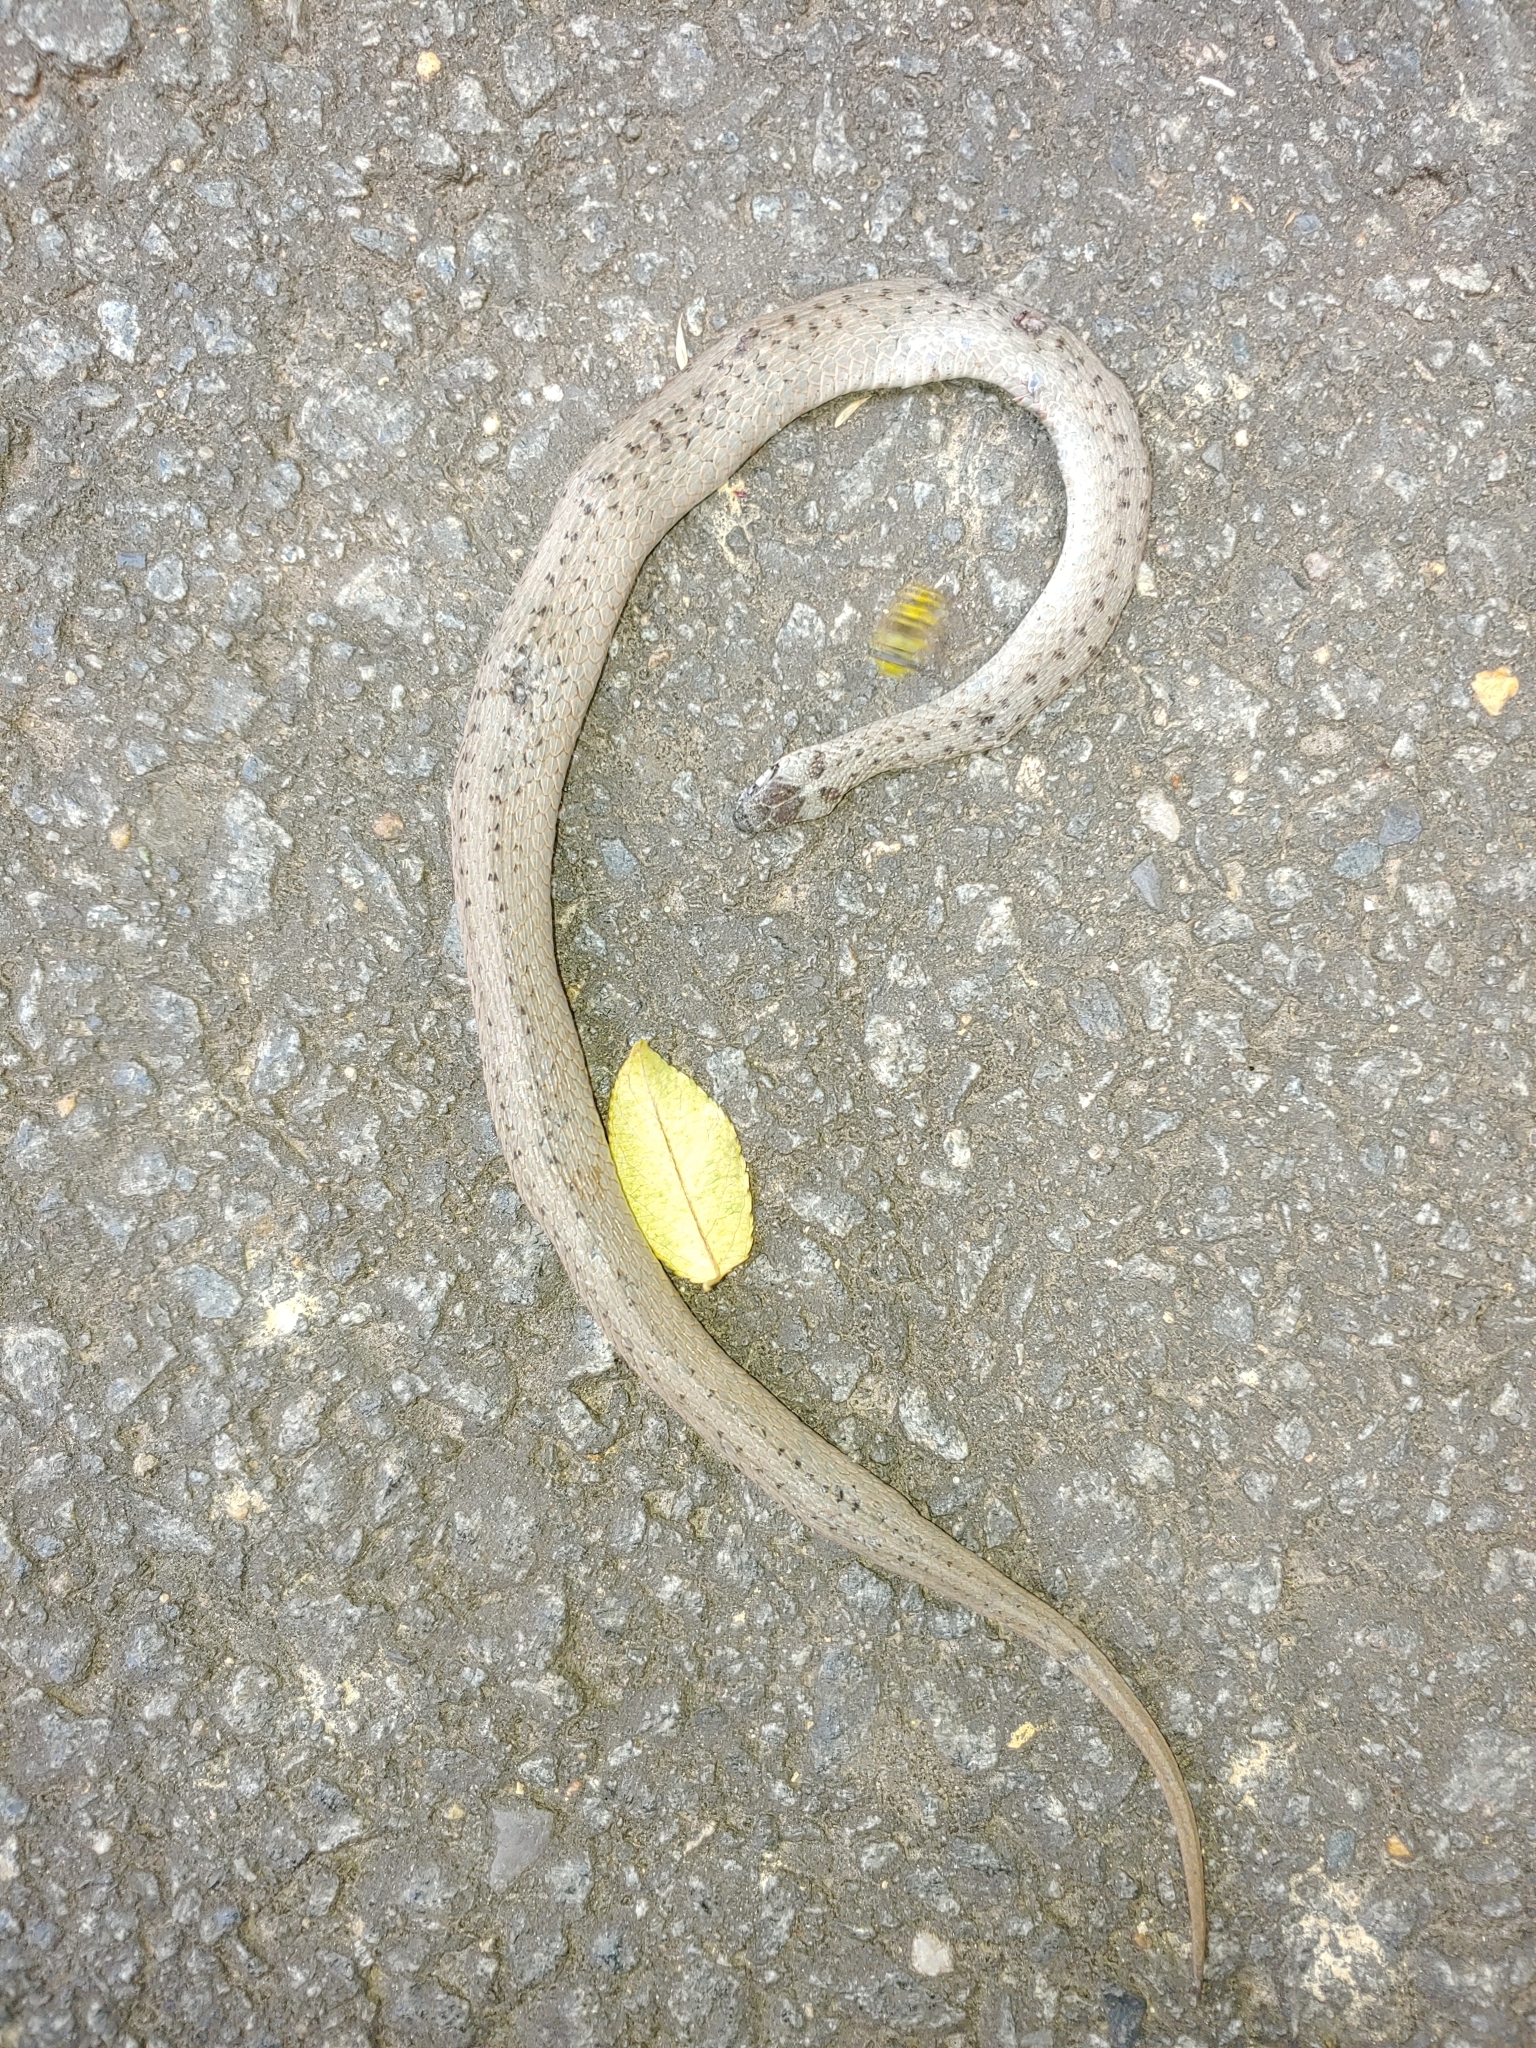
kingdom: Animalia
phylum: Chordata
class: Squamata
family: Colubridae
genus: Storeria
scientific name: Storeria dekayi
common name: (dekay’s) brown snake
